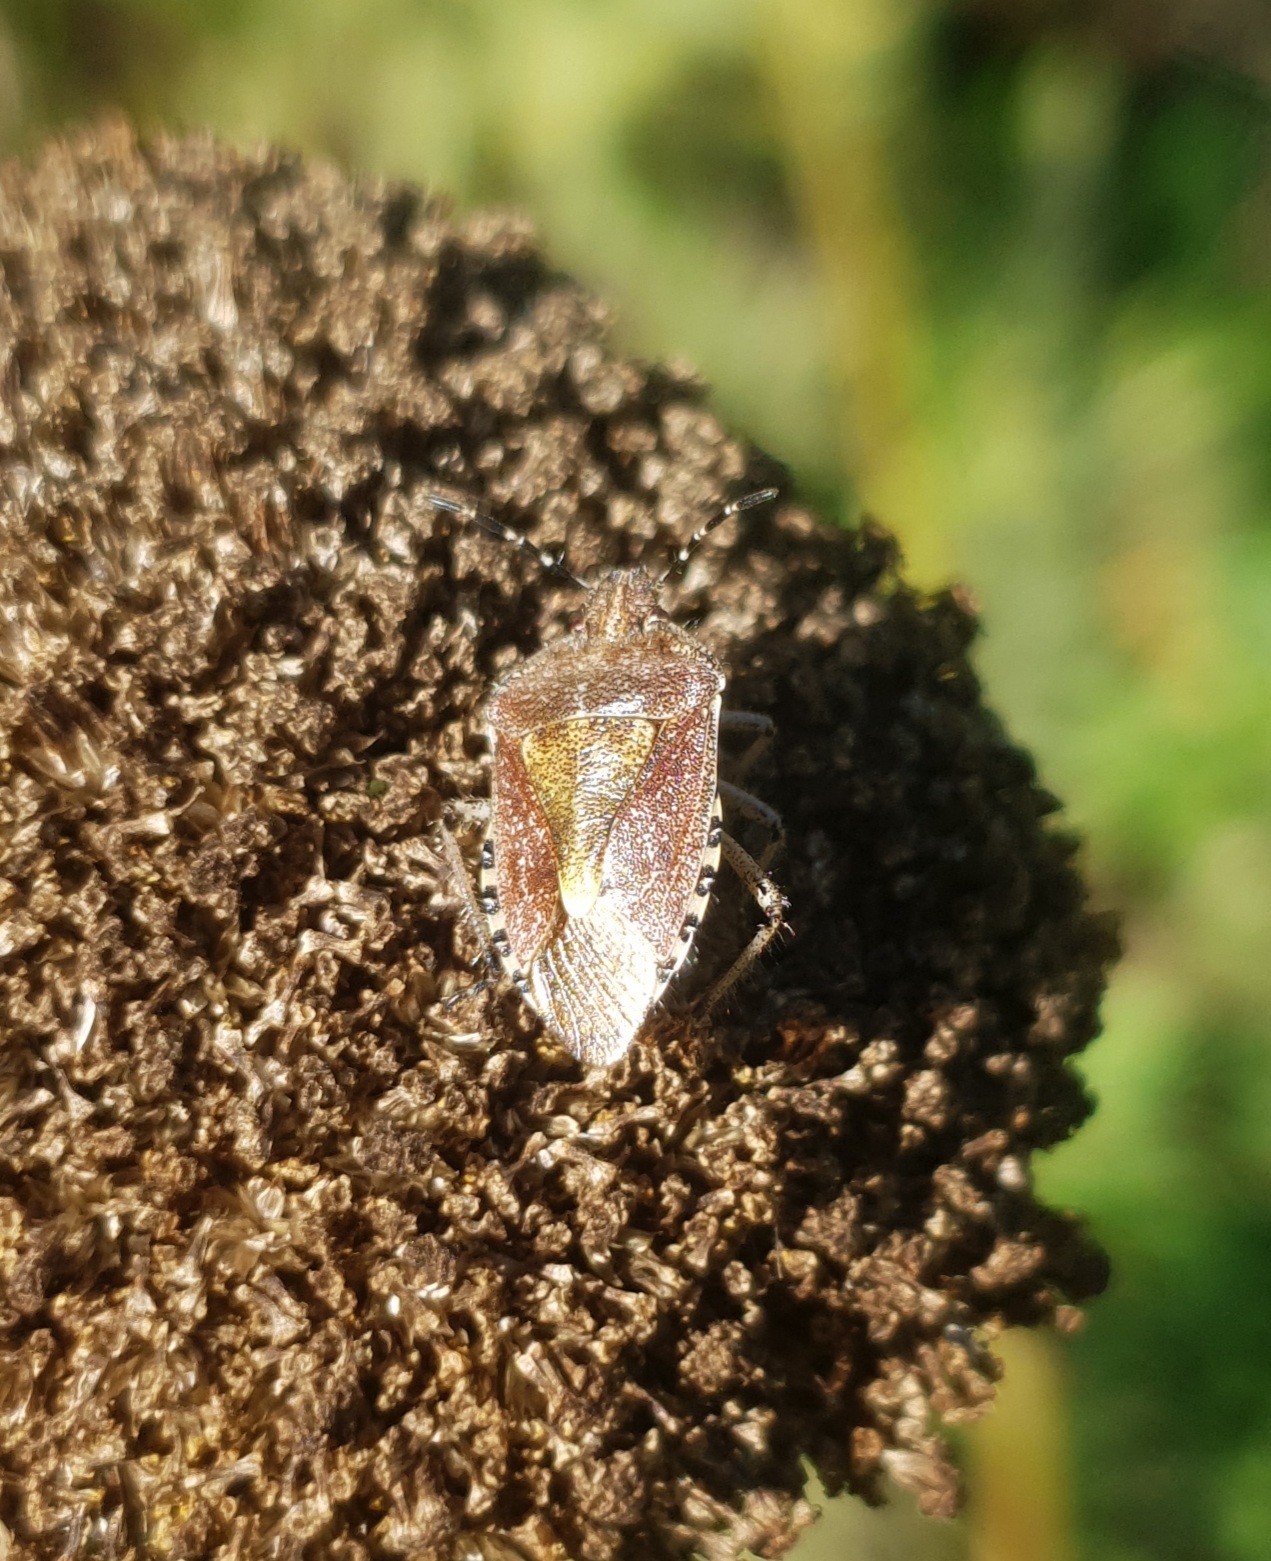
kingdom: Animalia
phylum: Arthropoda
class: Insecta
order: Hemiptera
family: Pentatomidae
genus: Dolycoris
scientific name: Dolycoris baccarum
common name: Sloe bug
